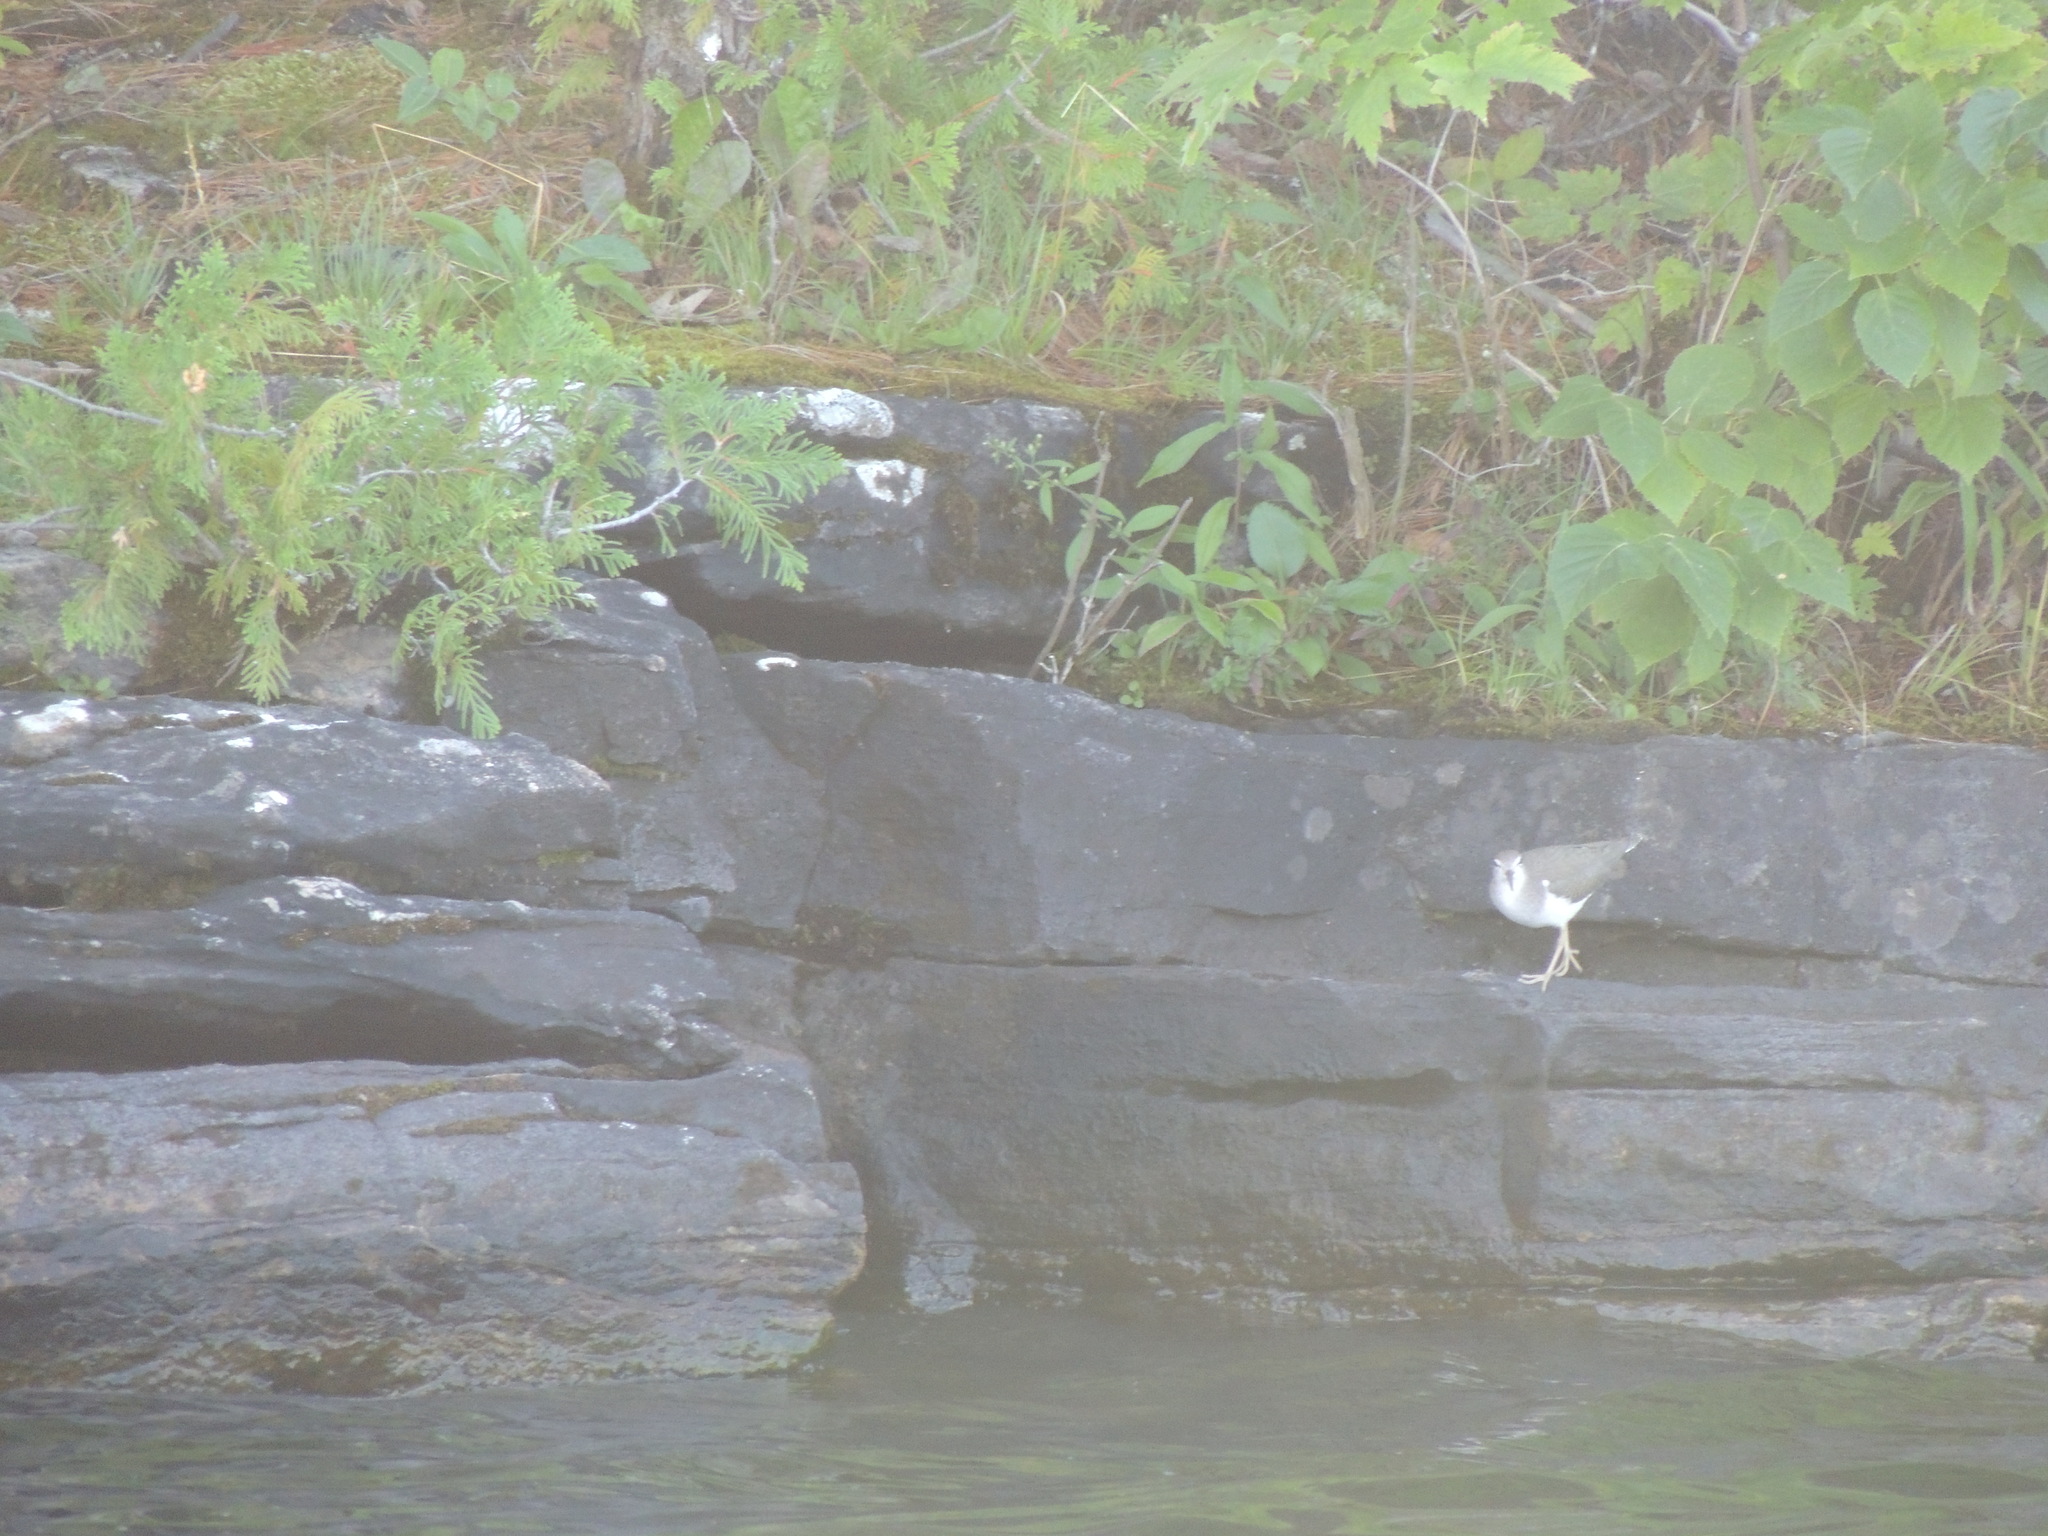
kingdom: Animalia
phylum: Chordata
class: Aves
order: Charadriiformes
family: Scolopacidae
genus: Actitis
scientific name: Actitis macularius
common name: Spotted sandpiper
